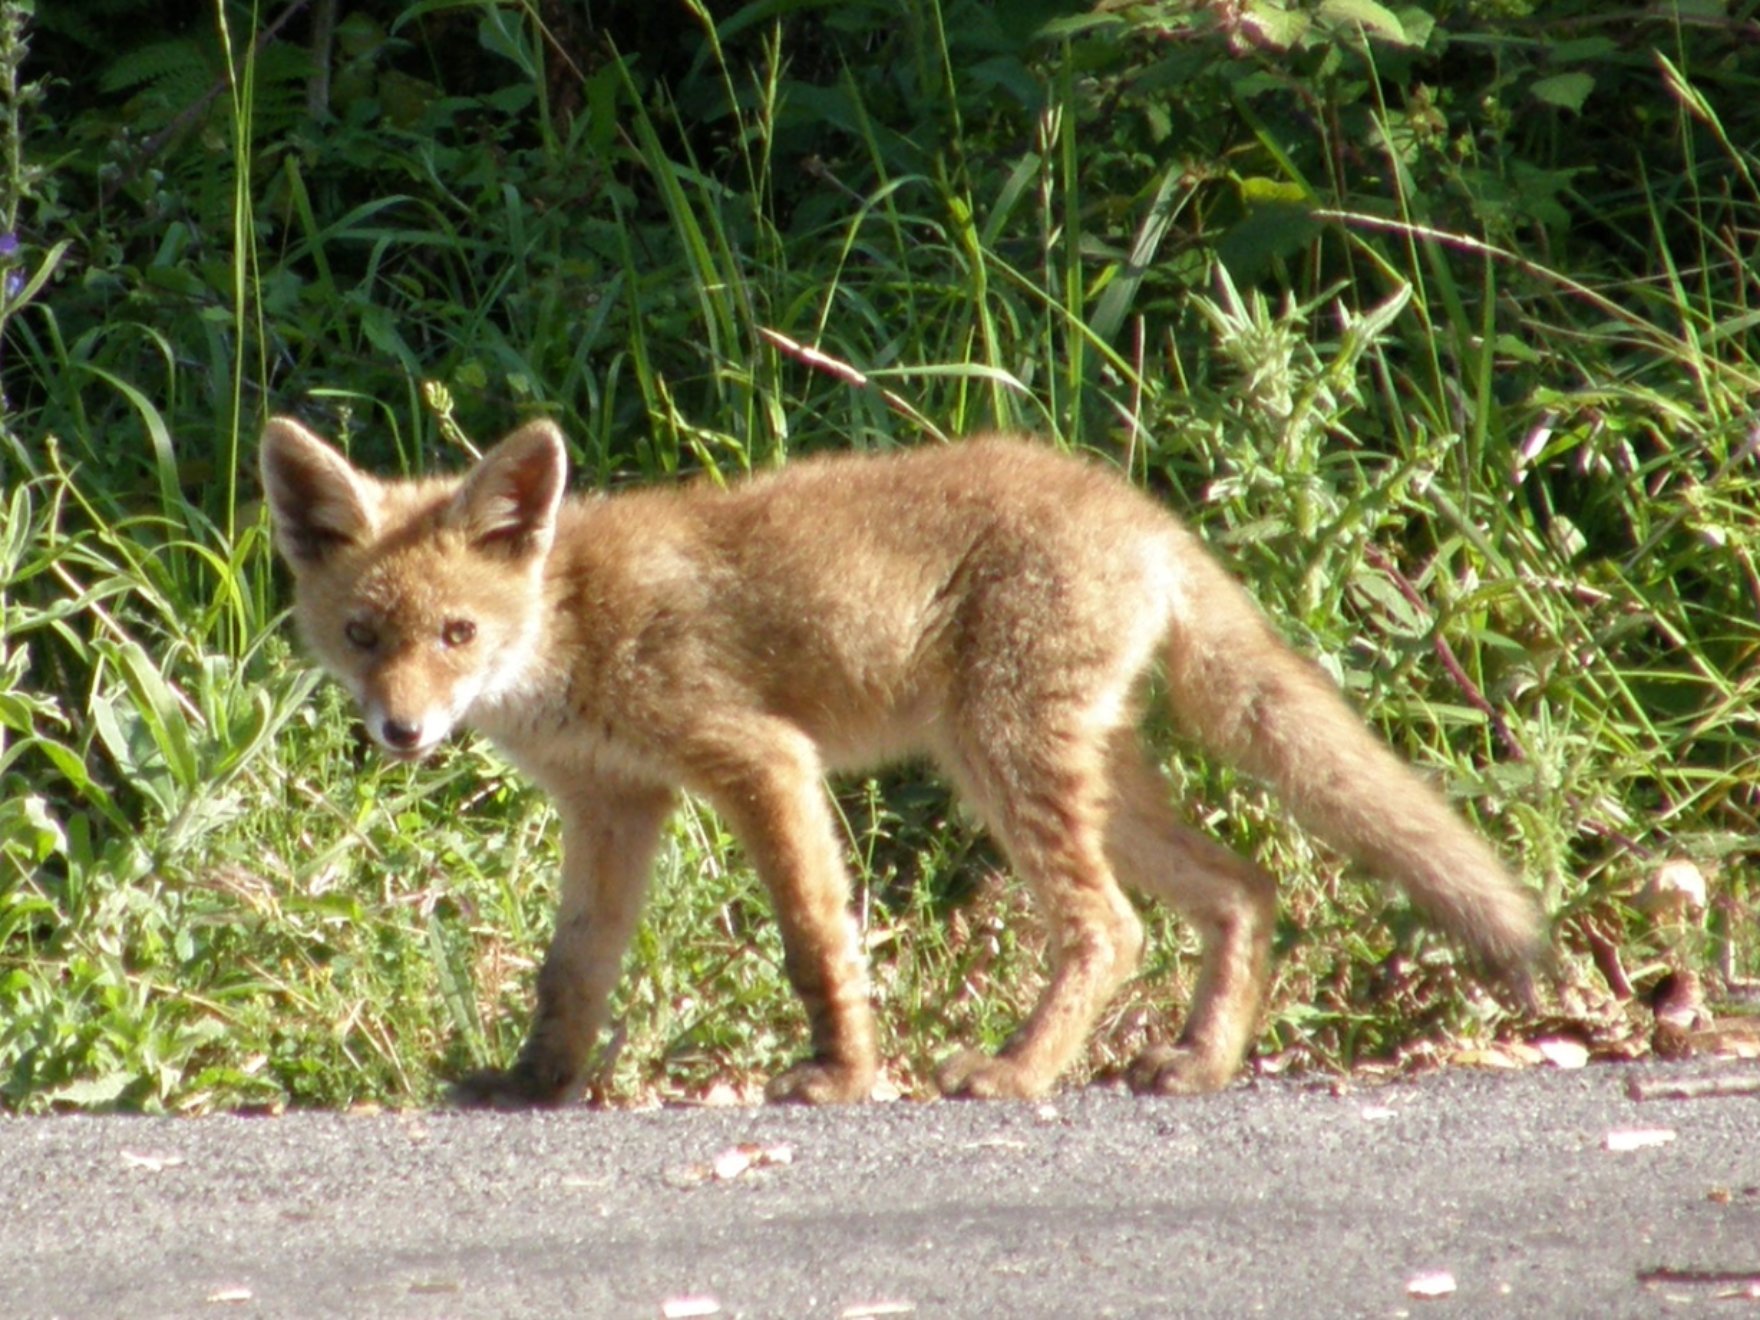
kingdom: Animalia
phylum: Chordata
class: Mammalia
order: Carnivora
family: Canidae
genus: Vulpes
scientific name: Vulpes vulpes
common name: Red fox
